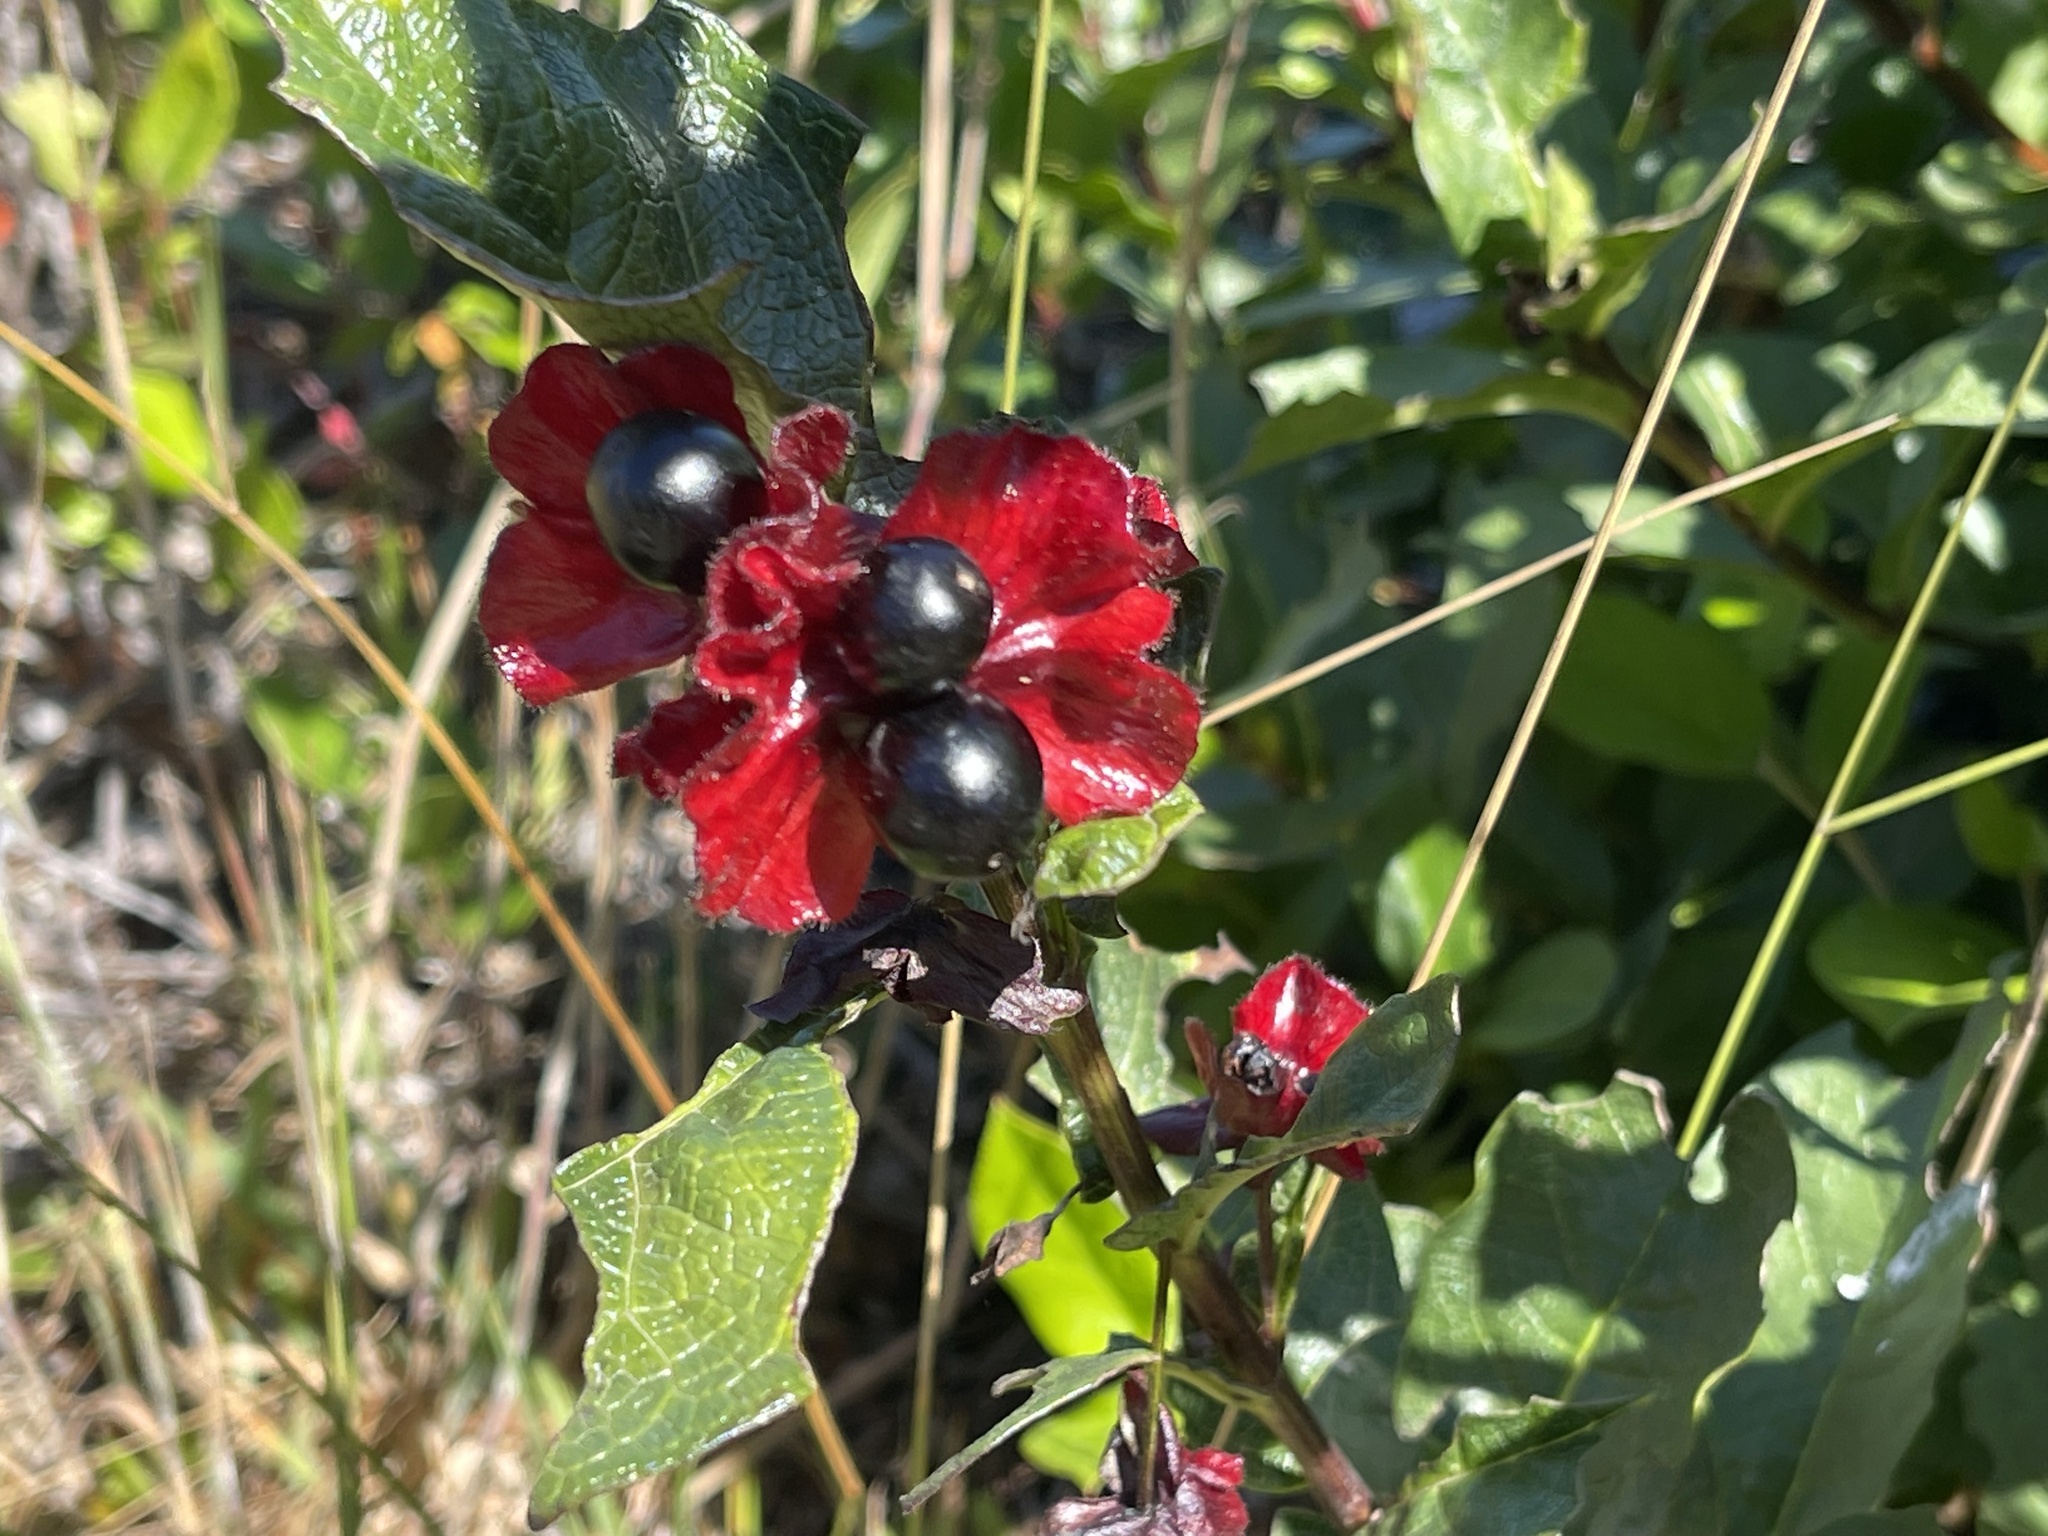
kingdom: Plantae
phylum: Tracheophyta
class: Magnoliopsida
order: Dipsacales
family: Caprifoliaceae
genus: Lonicera
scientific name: Lonicera involucrata
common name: Californian honeysuckle
